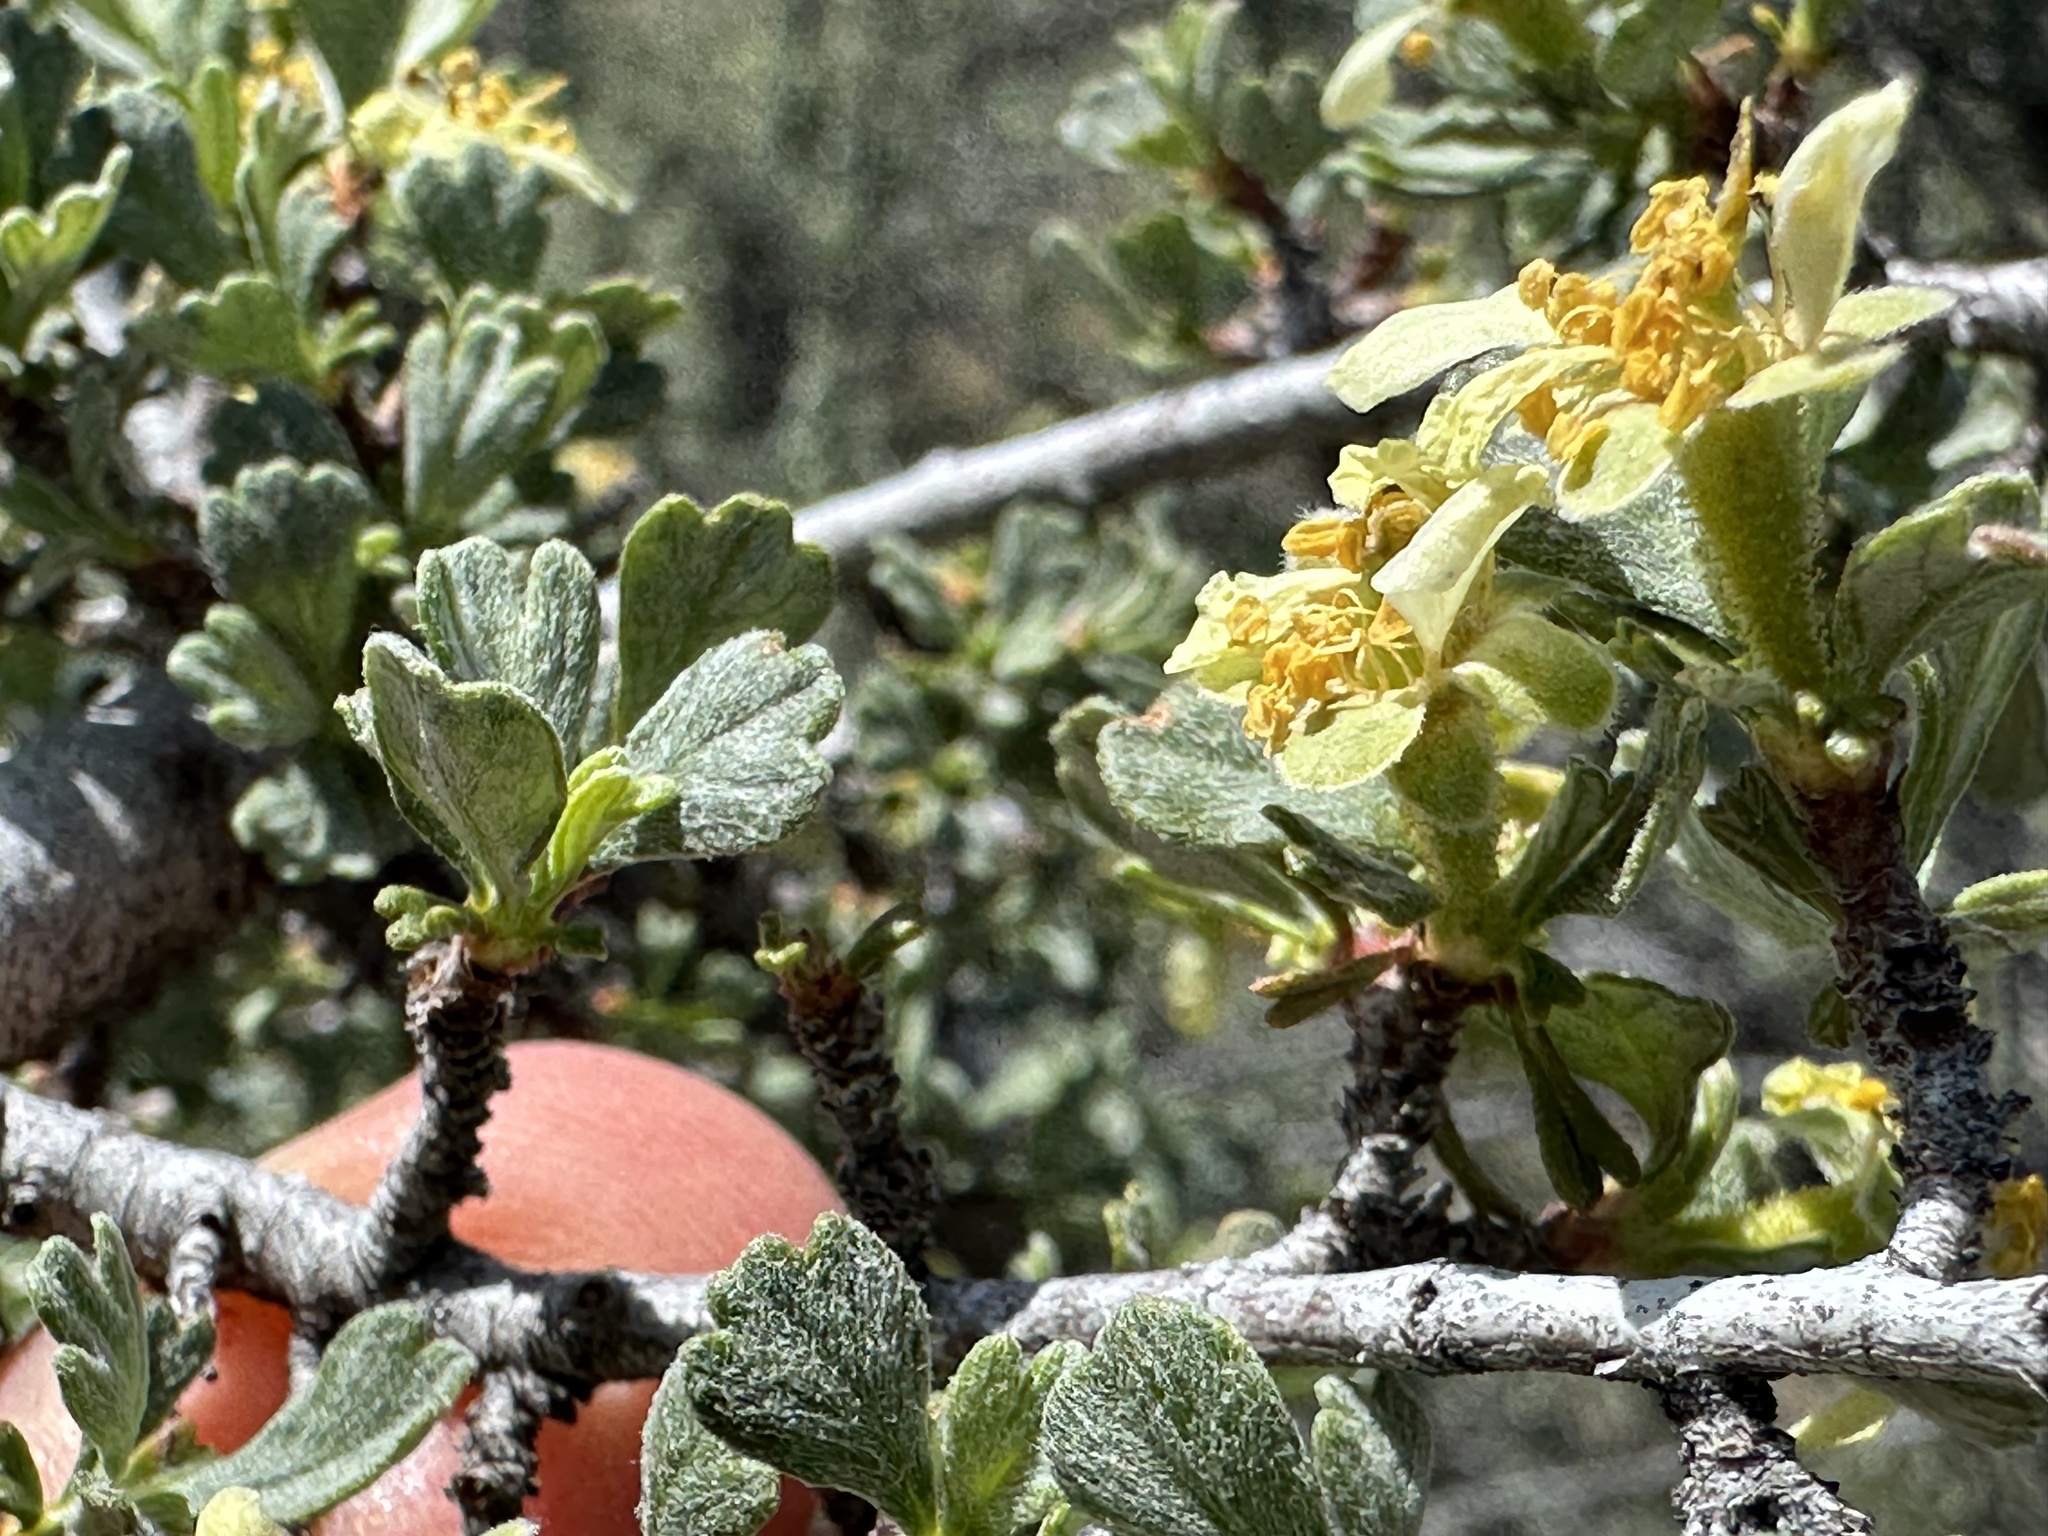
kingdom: Plantae
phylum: Tracheophyta
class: Magnoliopsida
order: Rosales
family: Rosaceae
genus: Purshia
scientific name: Purshia tridentata
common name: Antelope bitterbrush
